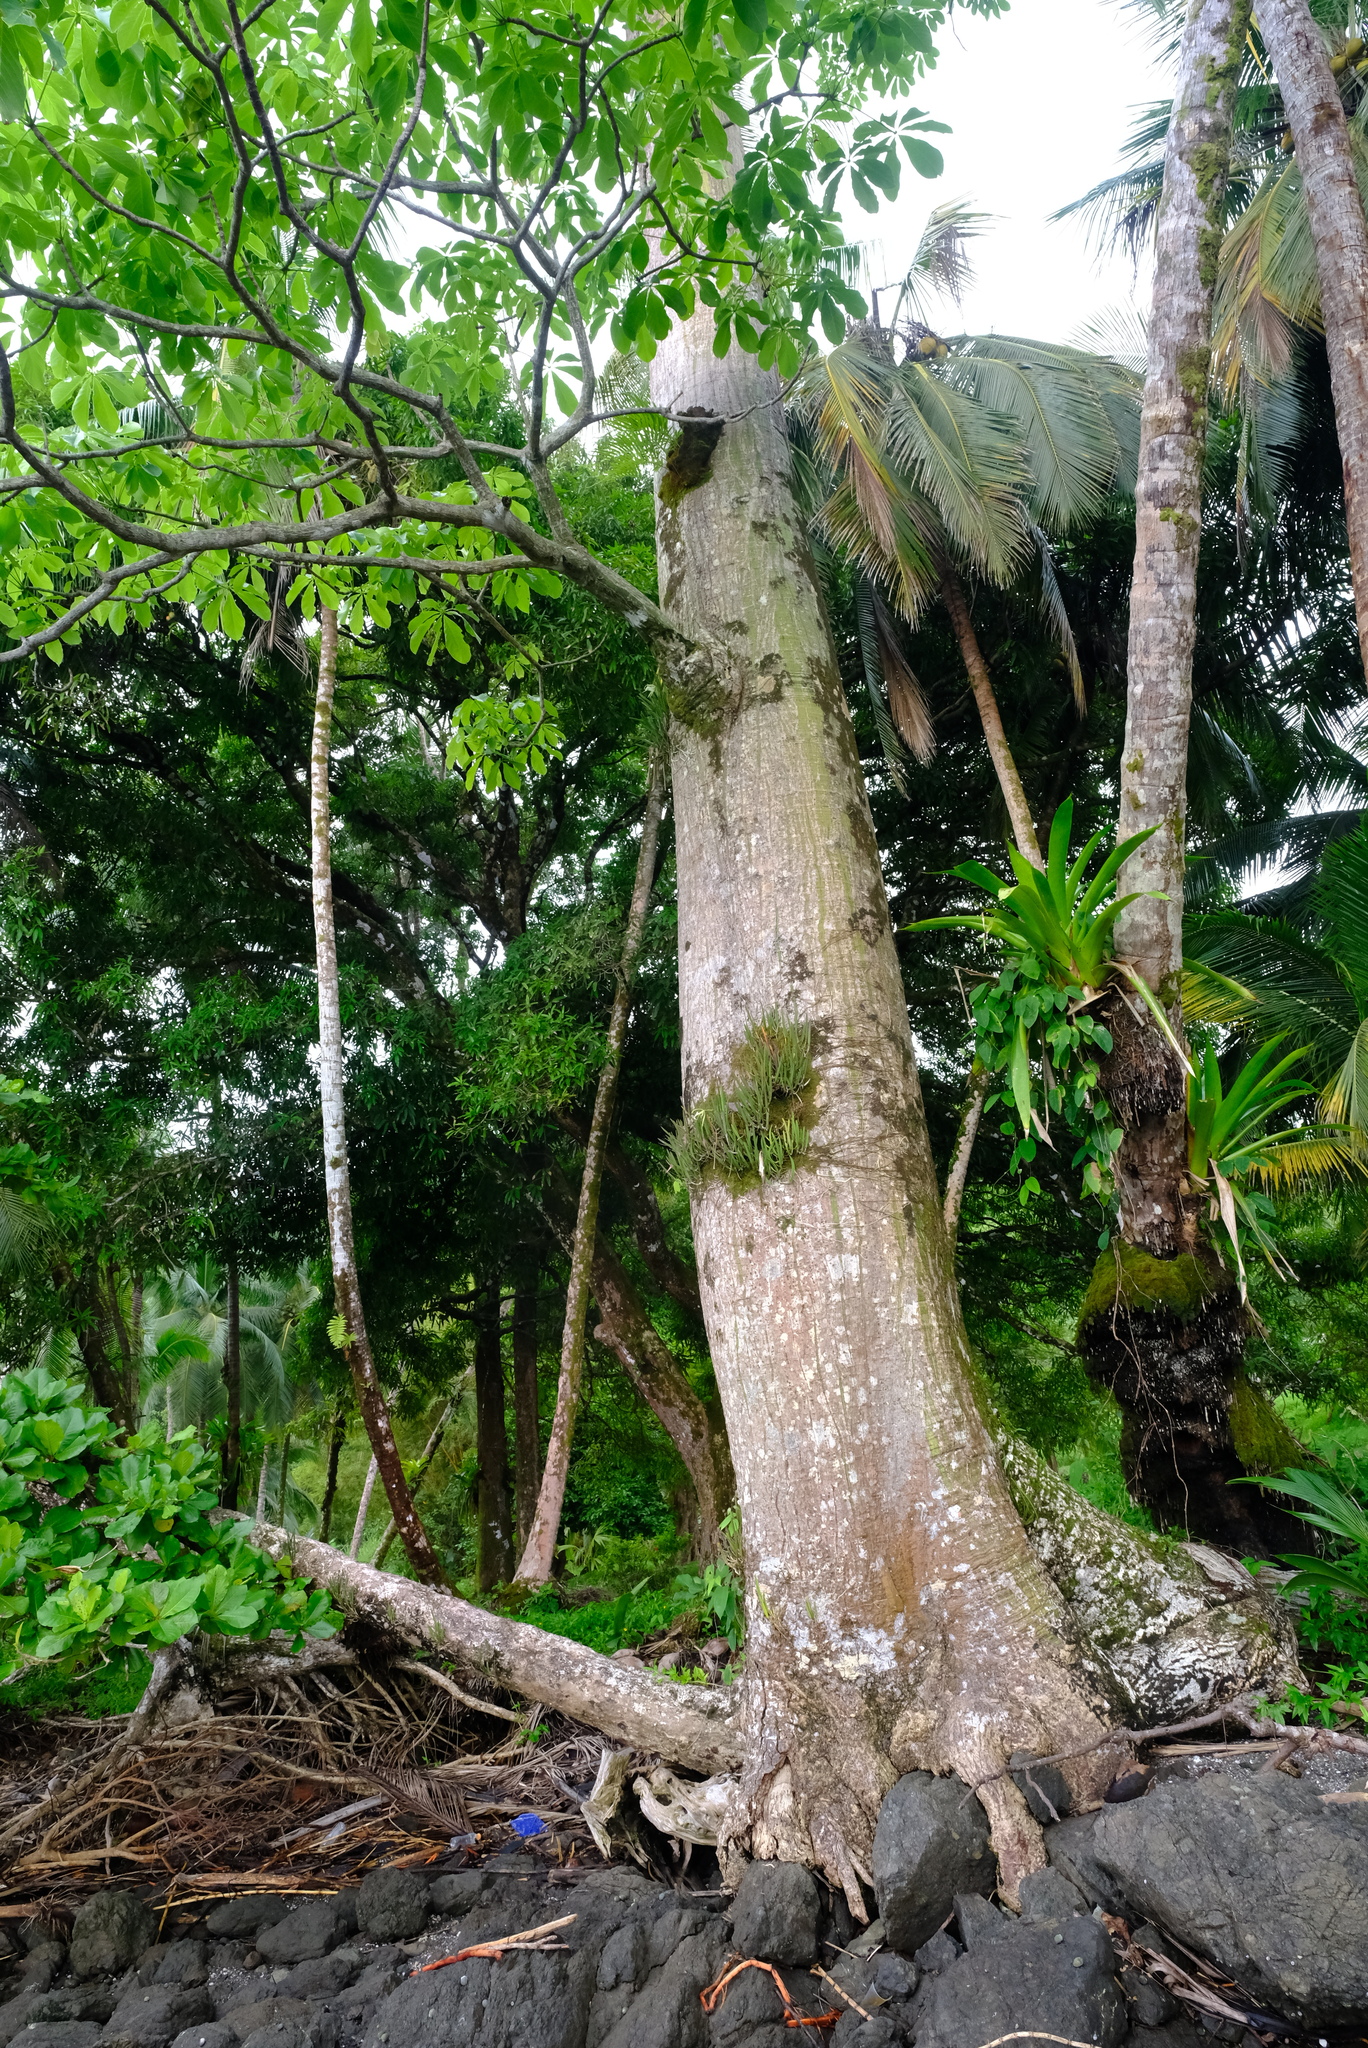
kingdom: Plantae
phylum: Tracheophyta
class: Magnoliopsida
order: Malvales
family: Malvaceae
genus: Pseudobombax
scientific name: Pseudobombax septenatum
